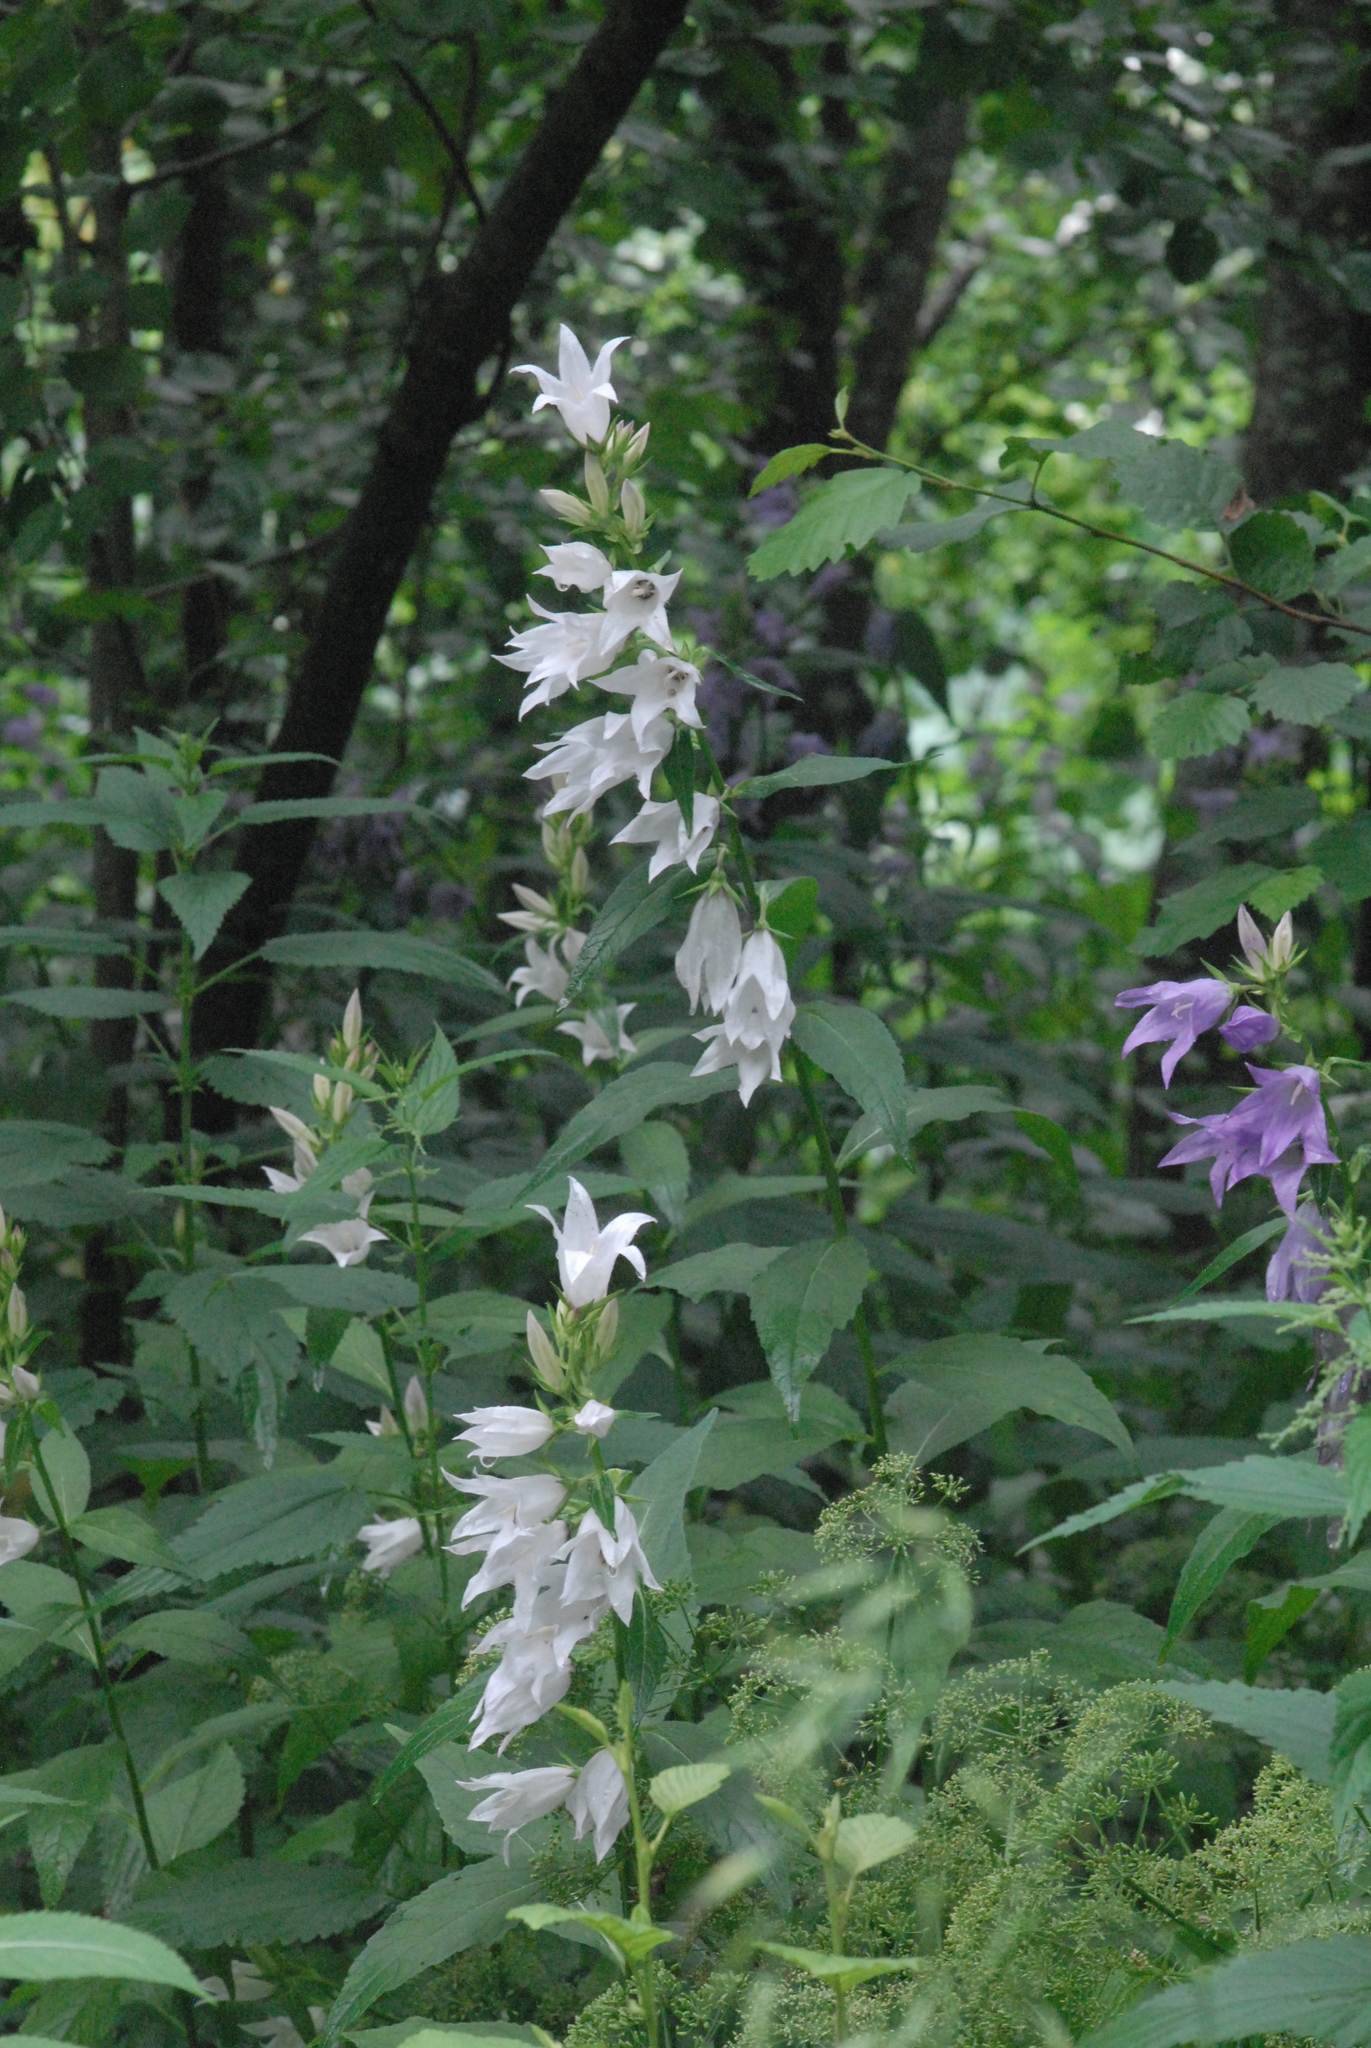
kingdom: Plantae
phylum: Tracheophyta
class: Magnoliopsida
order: Asterales
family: Campanulaceae
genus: Campanula
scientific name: Campanula latifolia
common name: Giant bellflower
